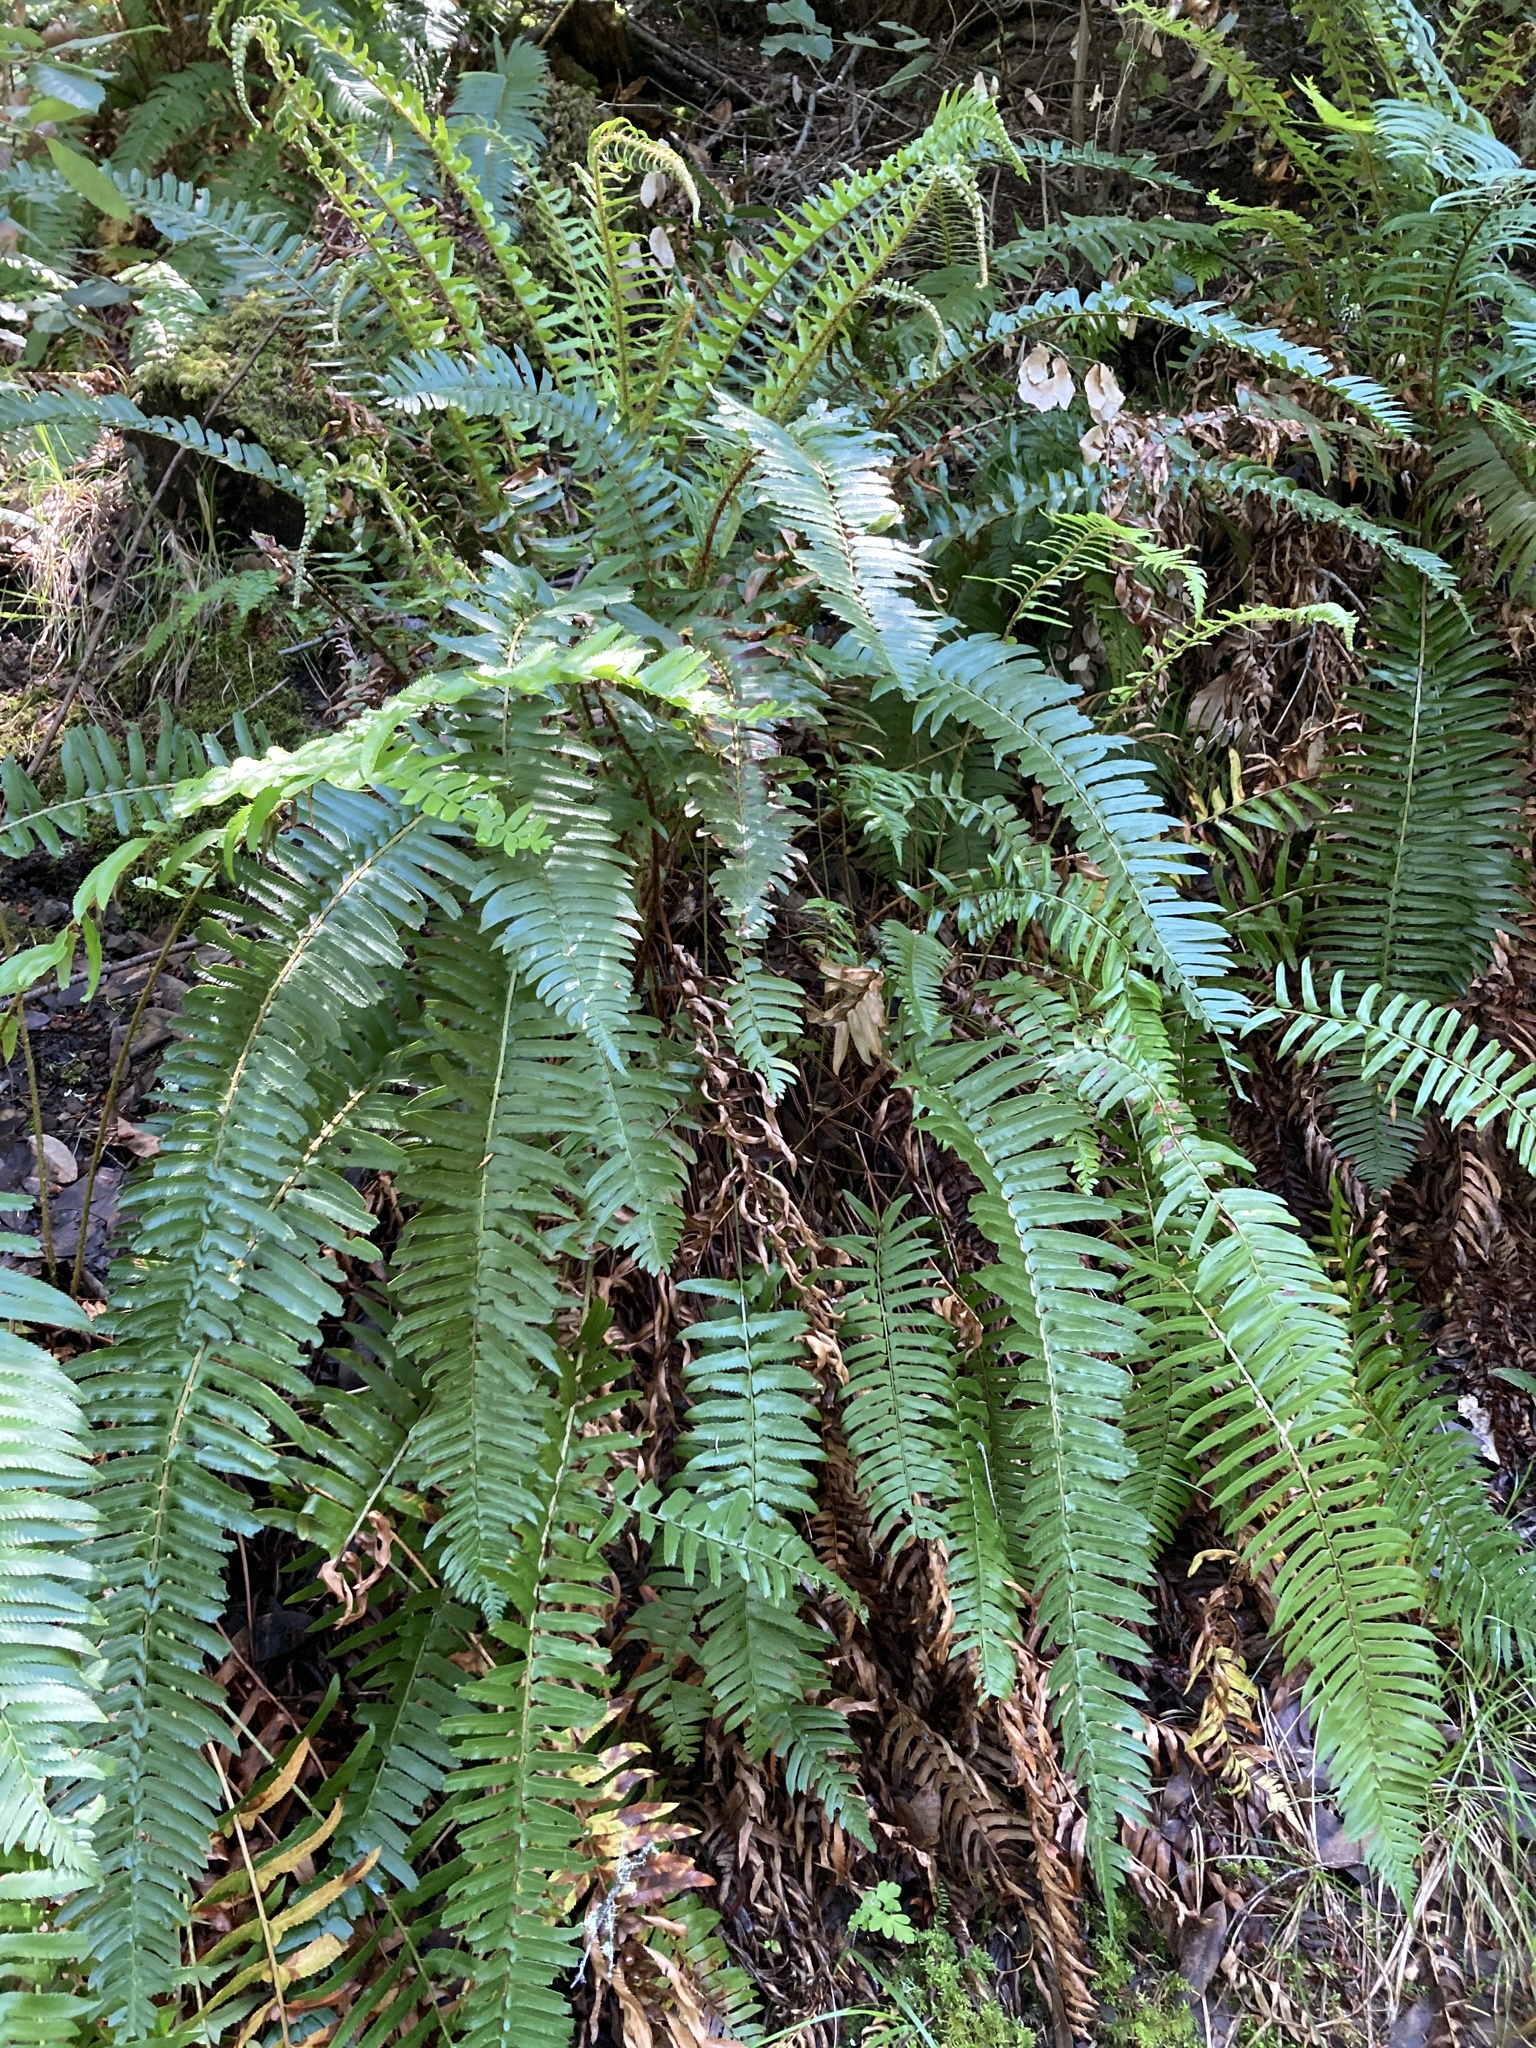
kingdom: Plantae
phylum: Tracheophyta
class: Polypodiopsida
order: Polypodiales
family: Dryopteridaceae
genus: Polystichum
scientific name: Polystichum munitum
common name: Western sword-fern
